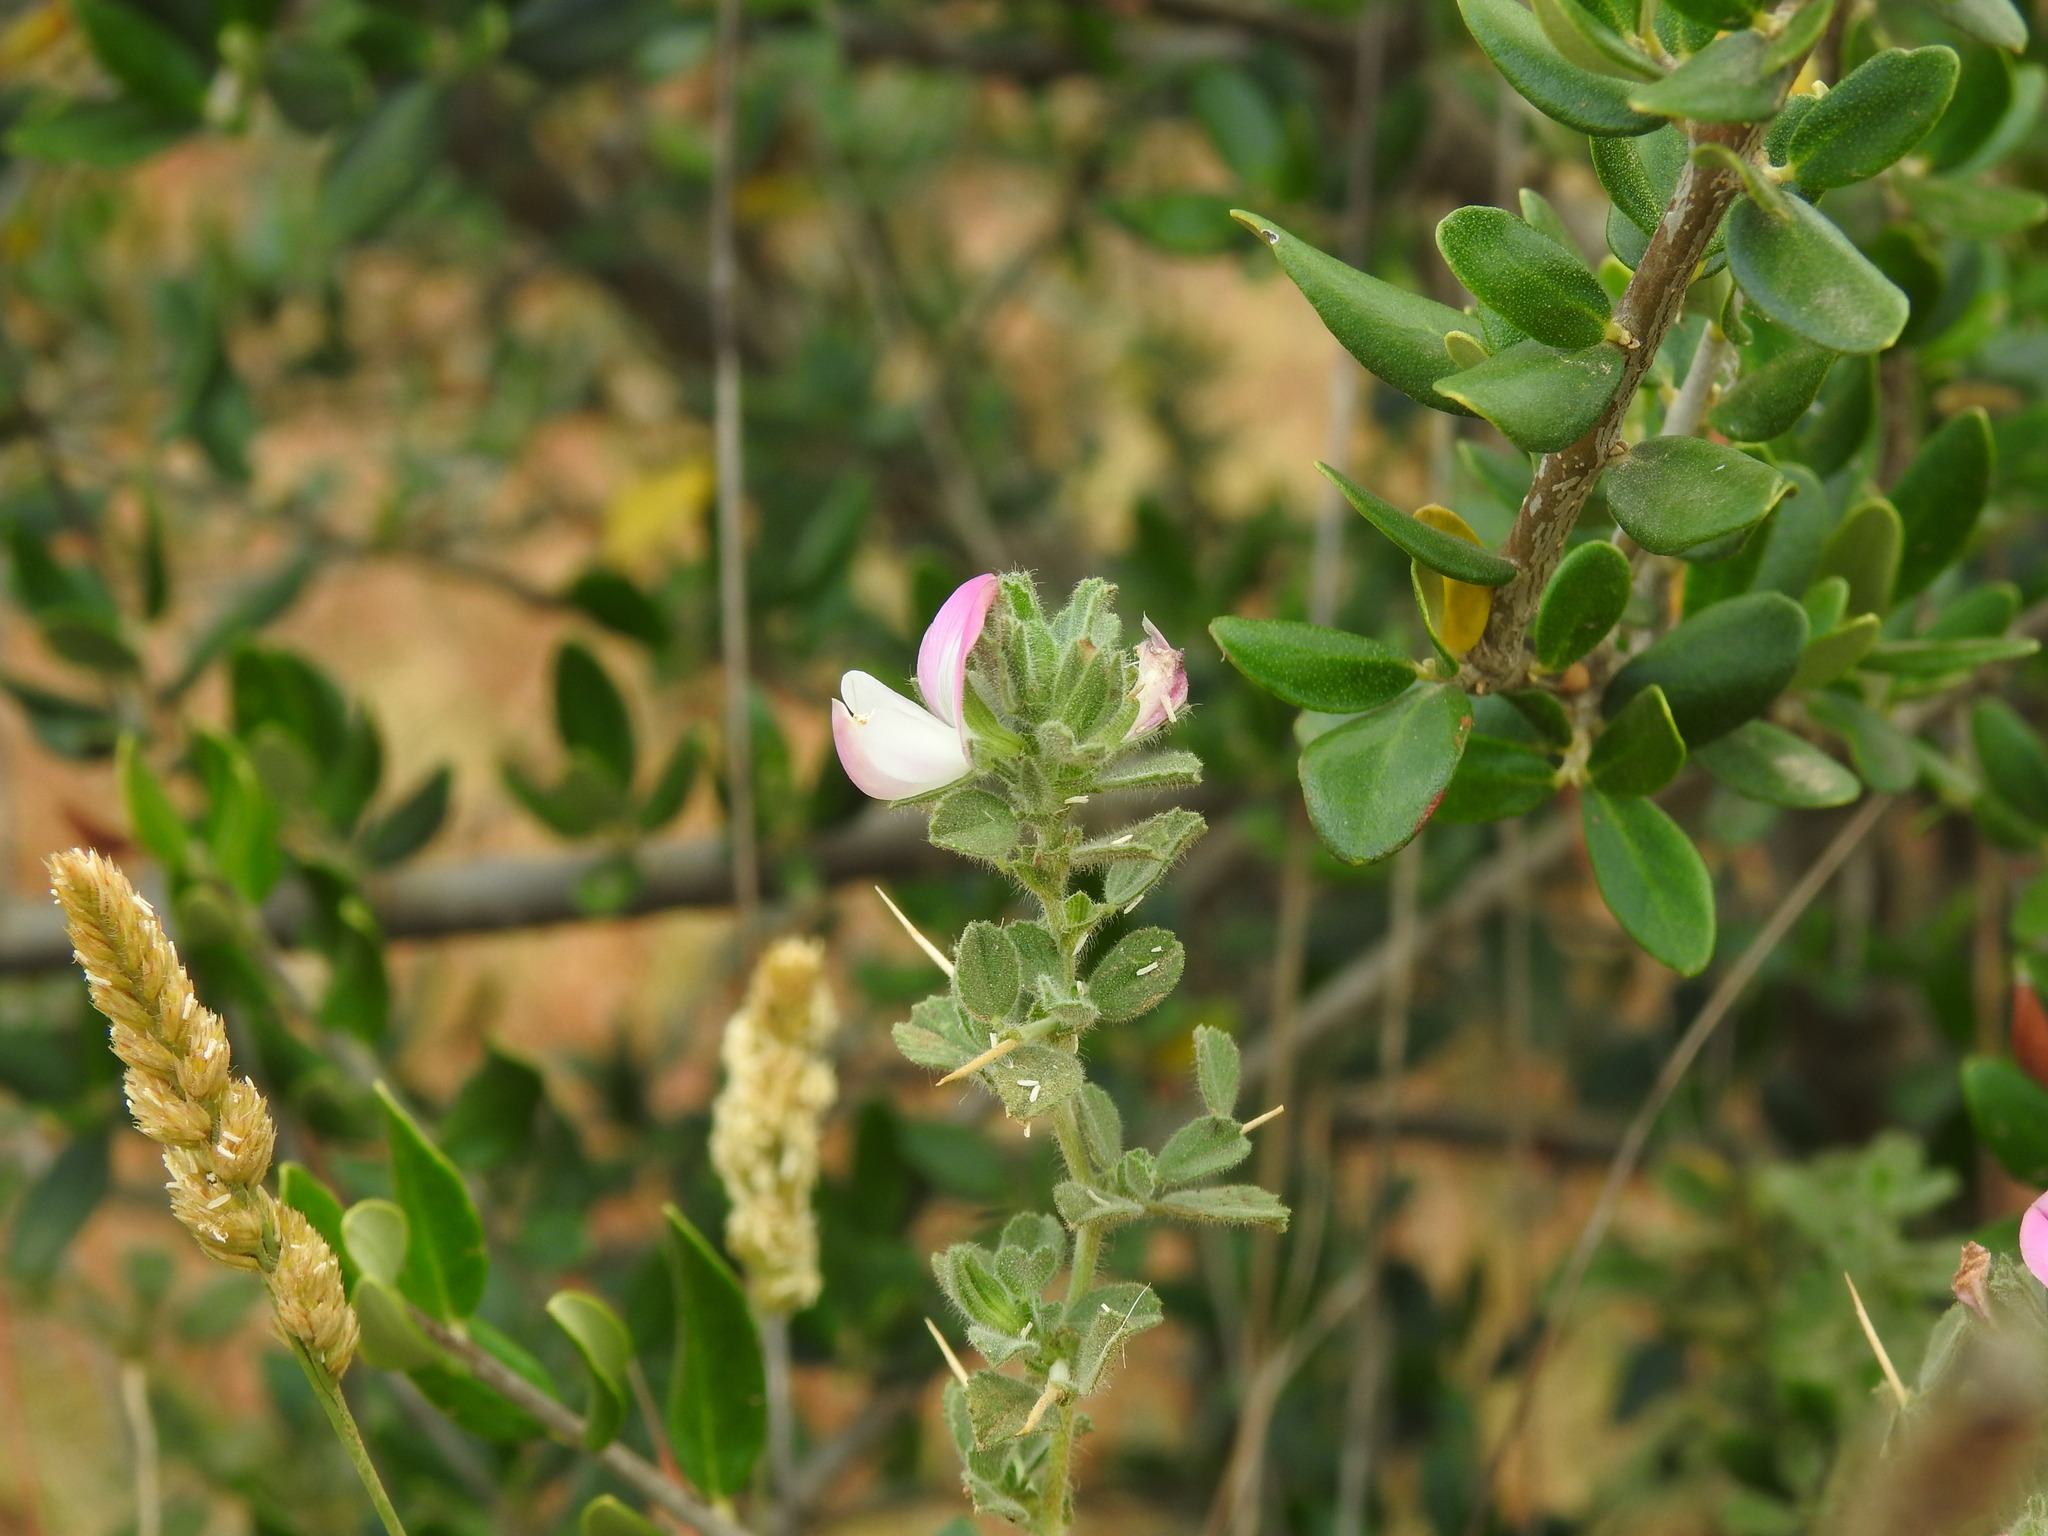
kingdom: Plantae
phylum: Tracheophyta
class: Magnoliopsida
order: Fabales
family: Fabaceae
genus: Ononis
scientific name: Ononis spinosa
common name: Spiny restharrow
